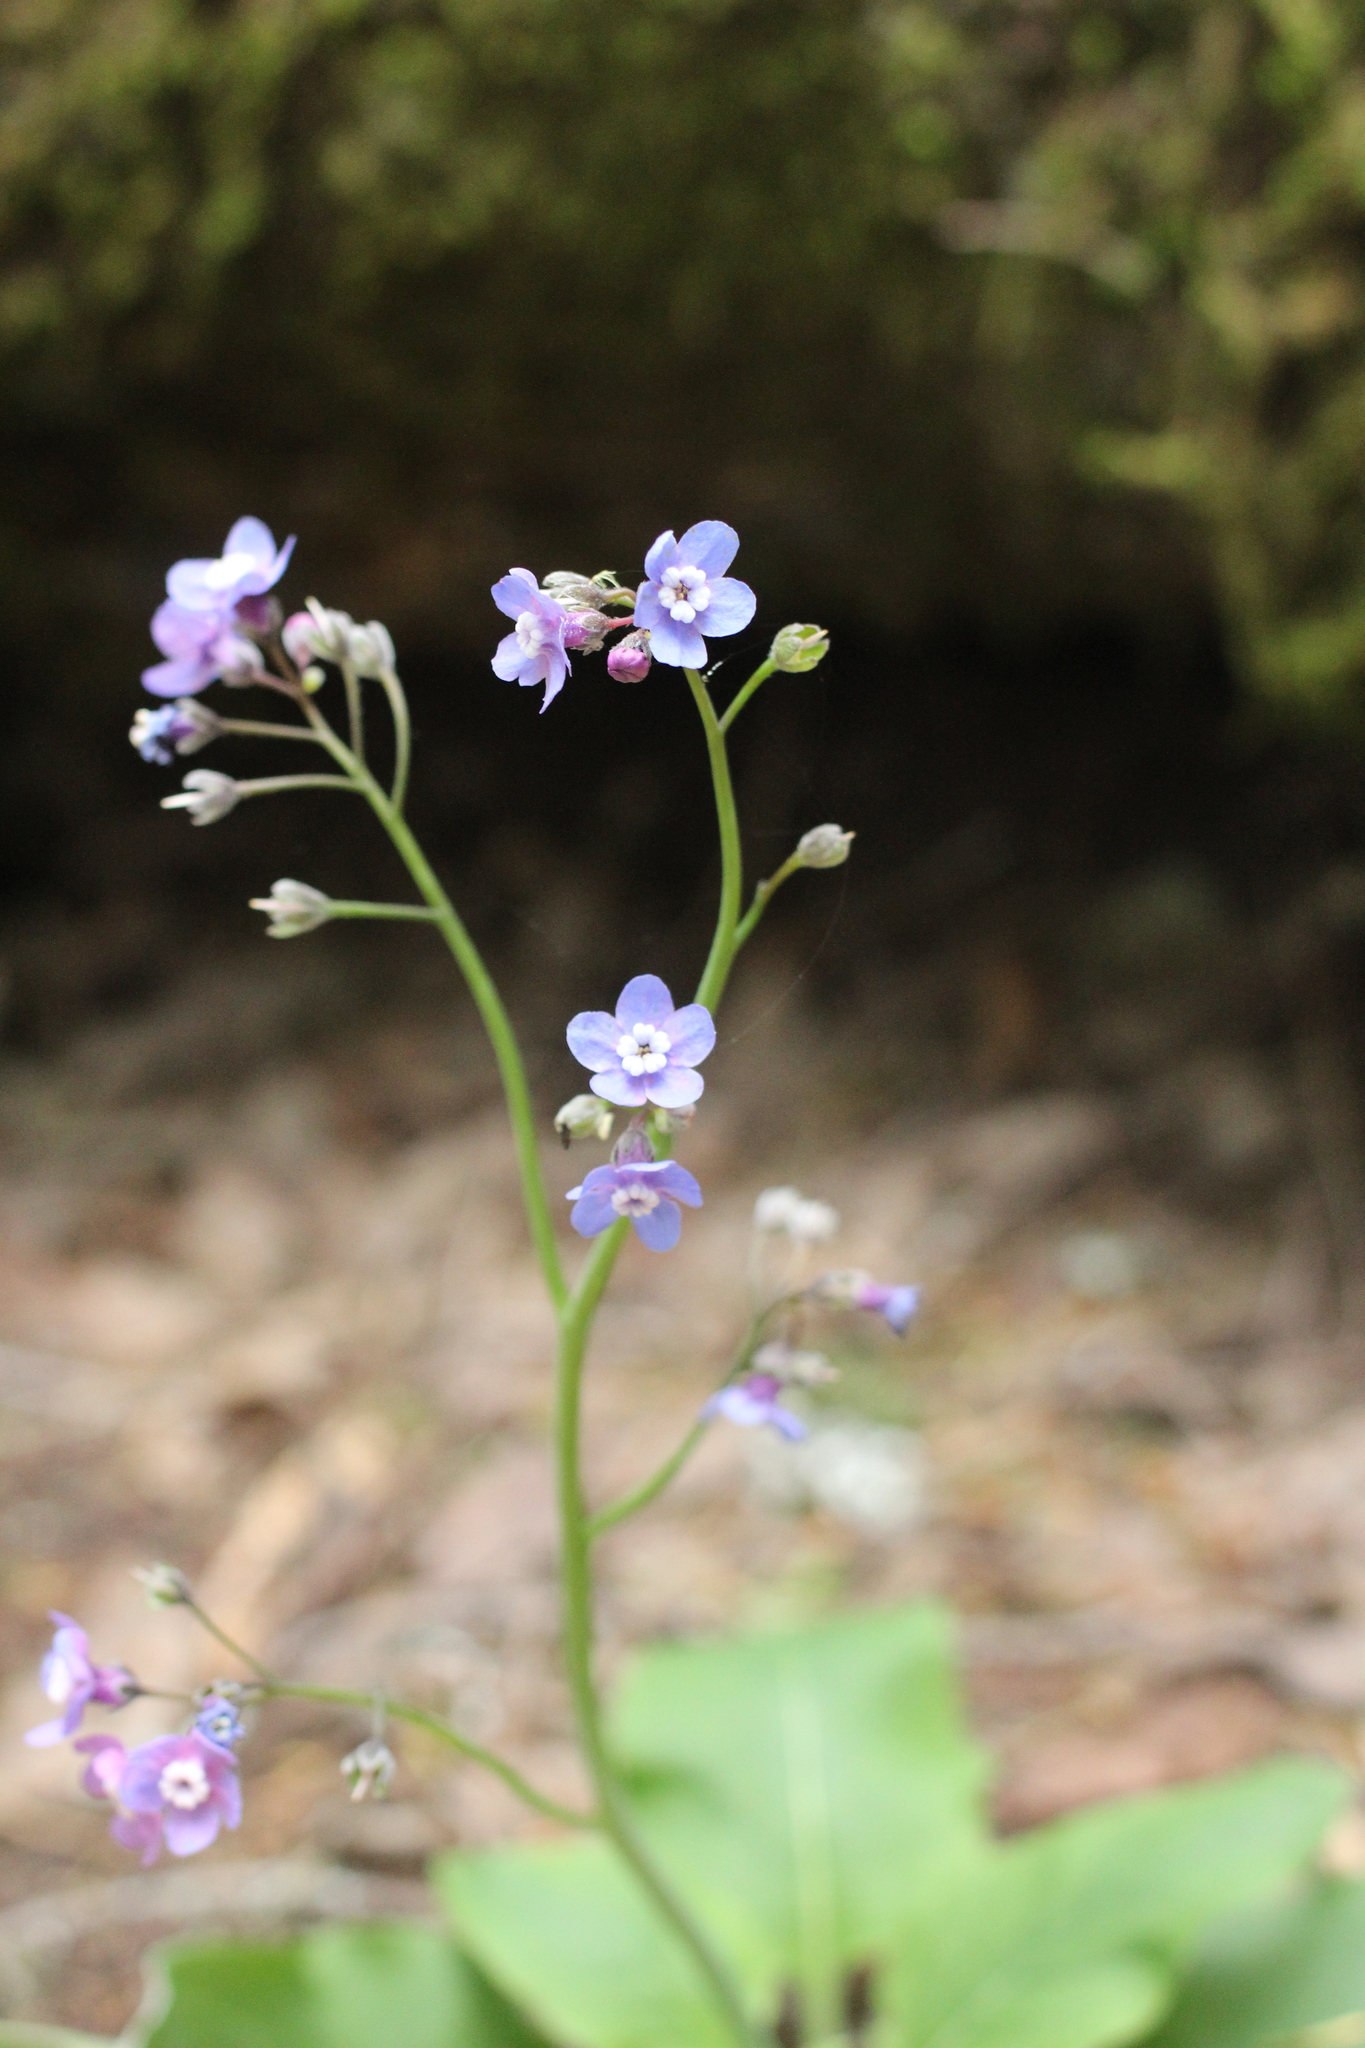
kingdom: Plantae
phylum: Tracheophyta
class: Magnoliopsida
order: Boraginales
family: Boraginaceae
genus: Adelinia
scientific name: Adelinia grande
